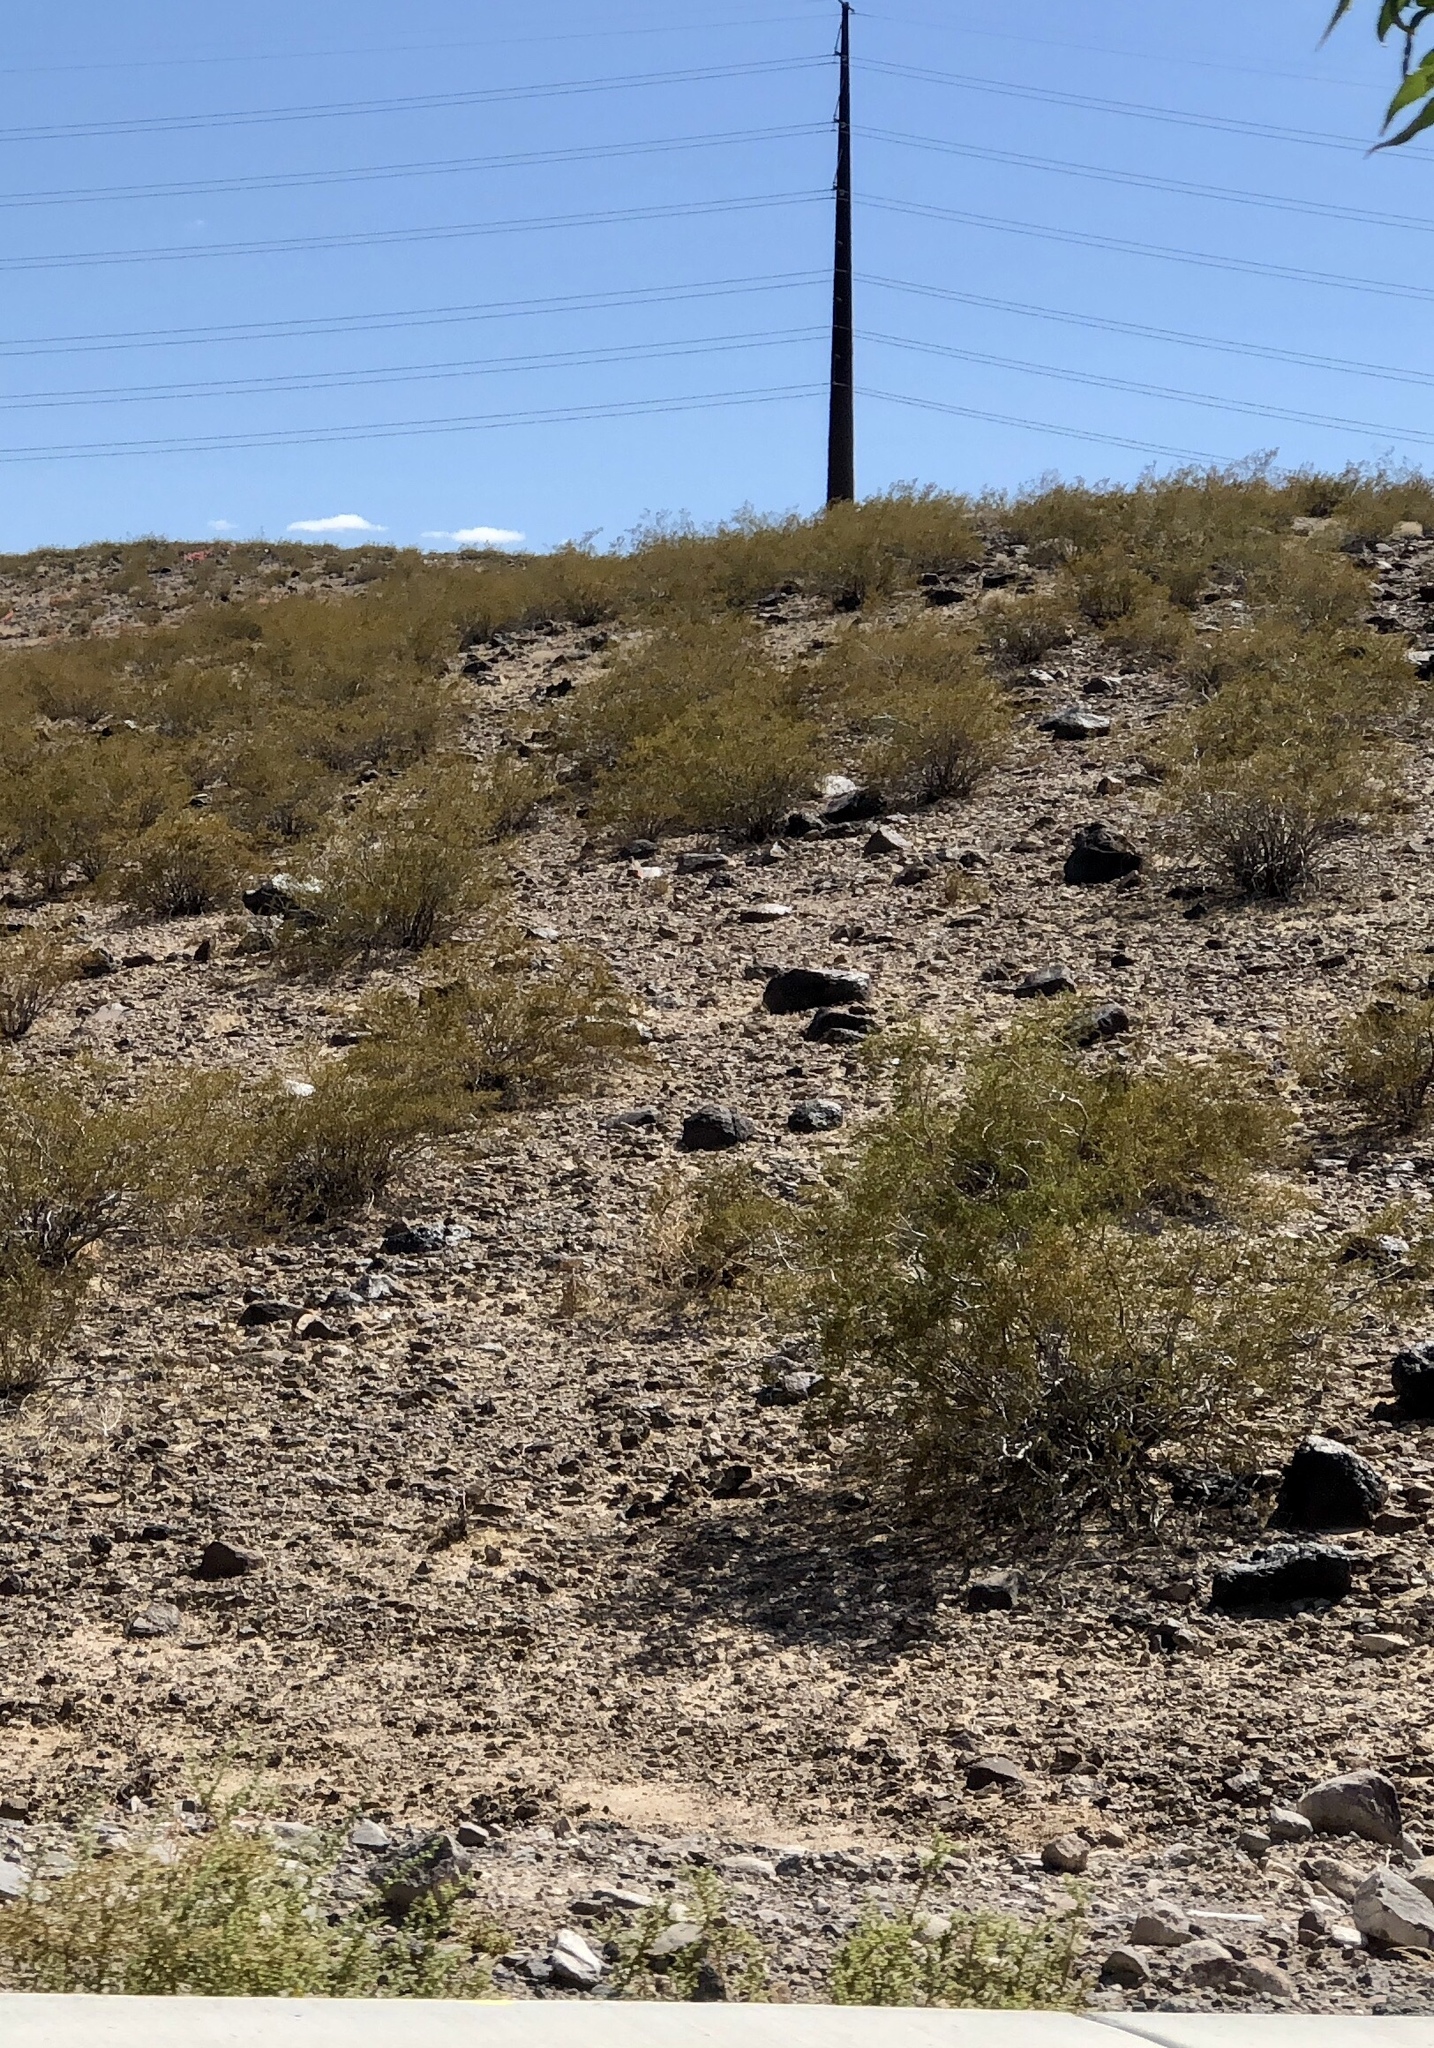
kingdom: Plantae
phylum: Tracheophyta
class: Magnoliopsida
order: Zygophyllales
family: Zygophyllaceae
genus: Larrea
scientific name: Larrea tridentata
